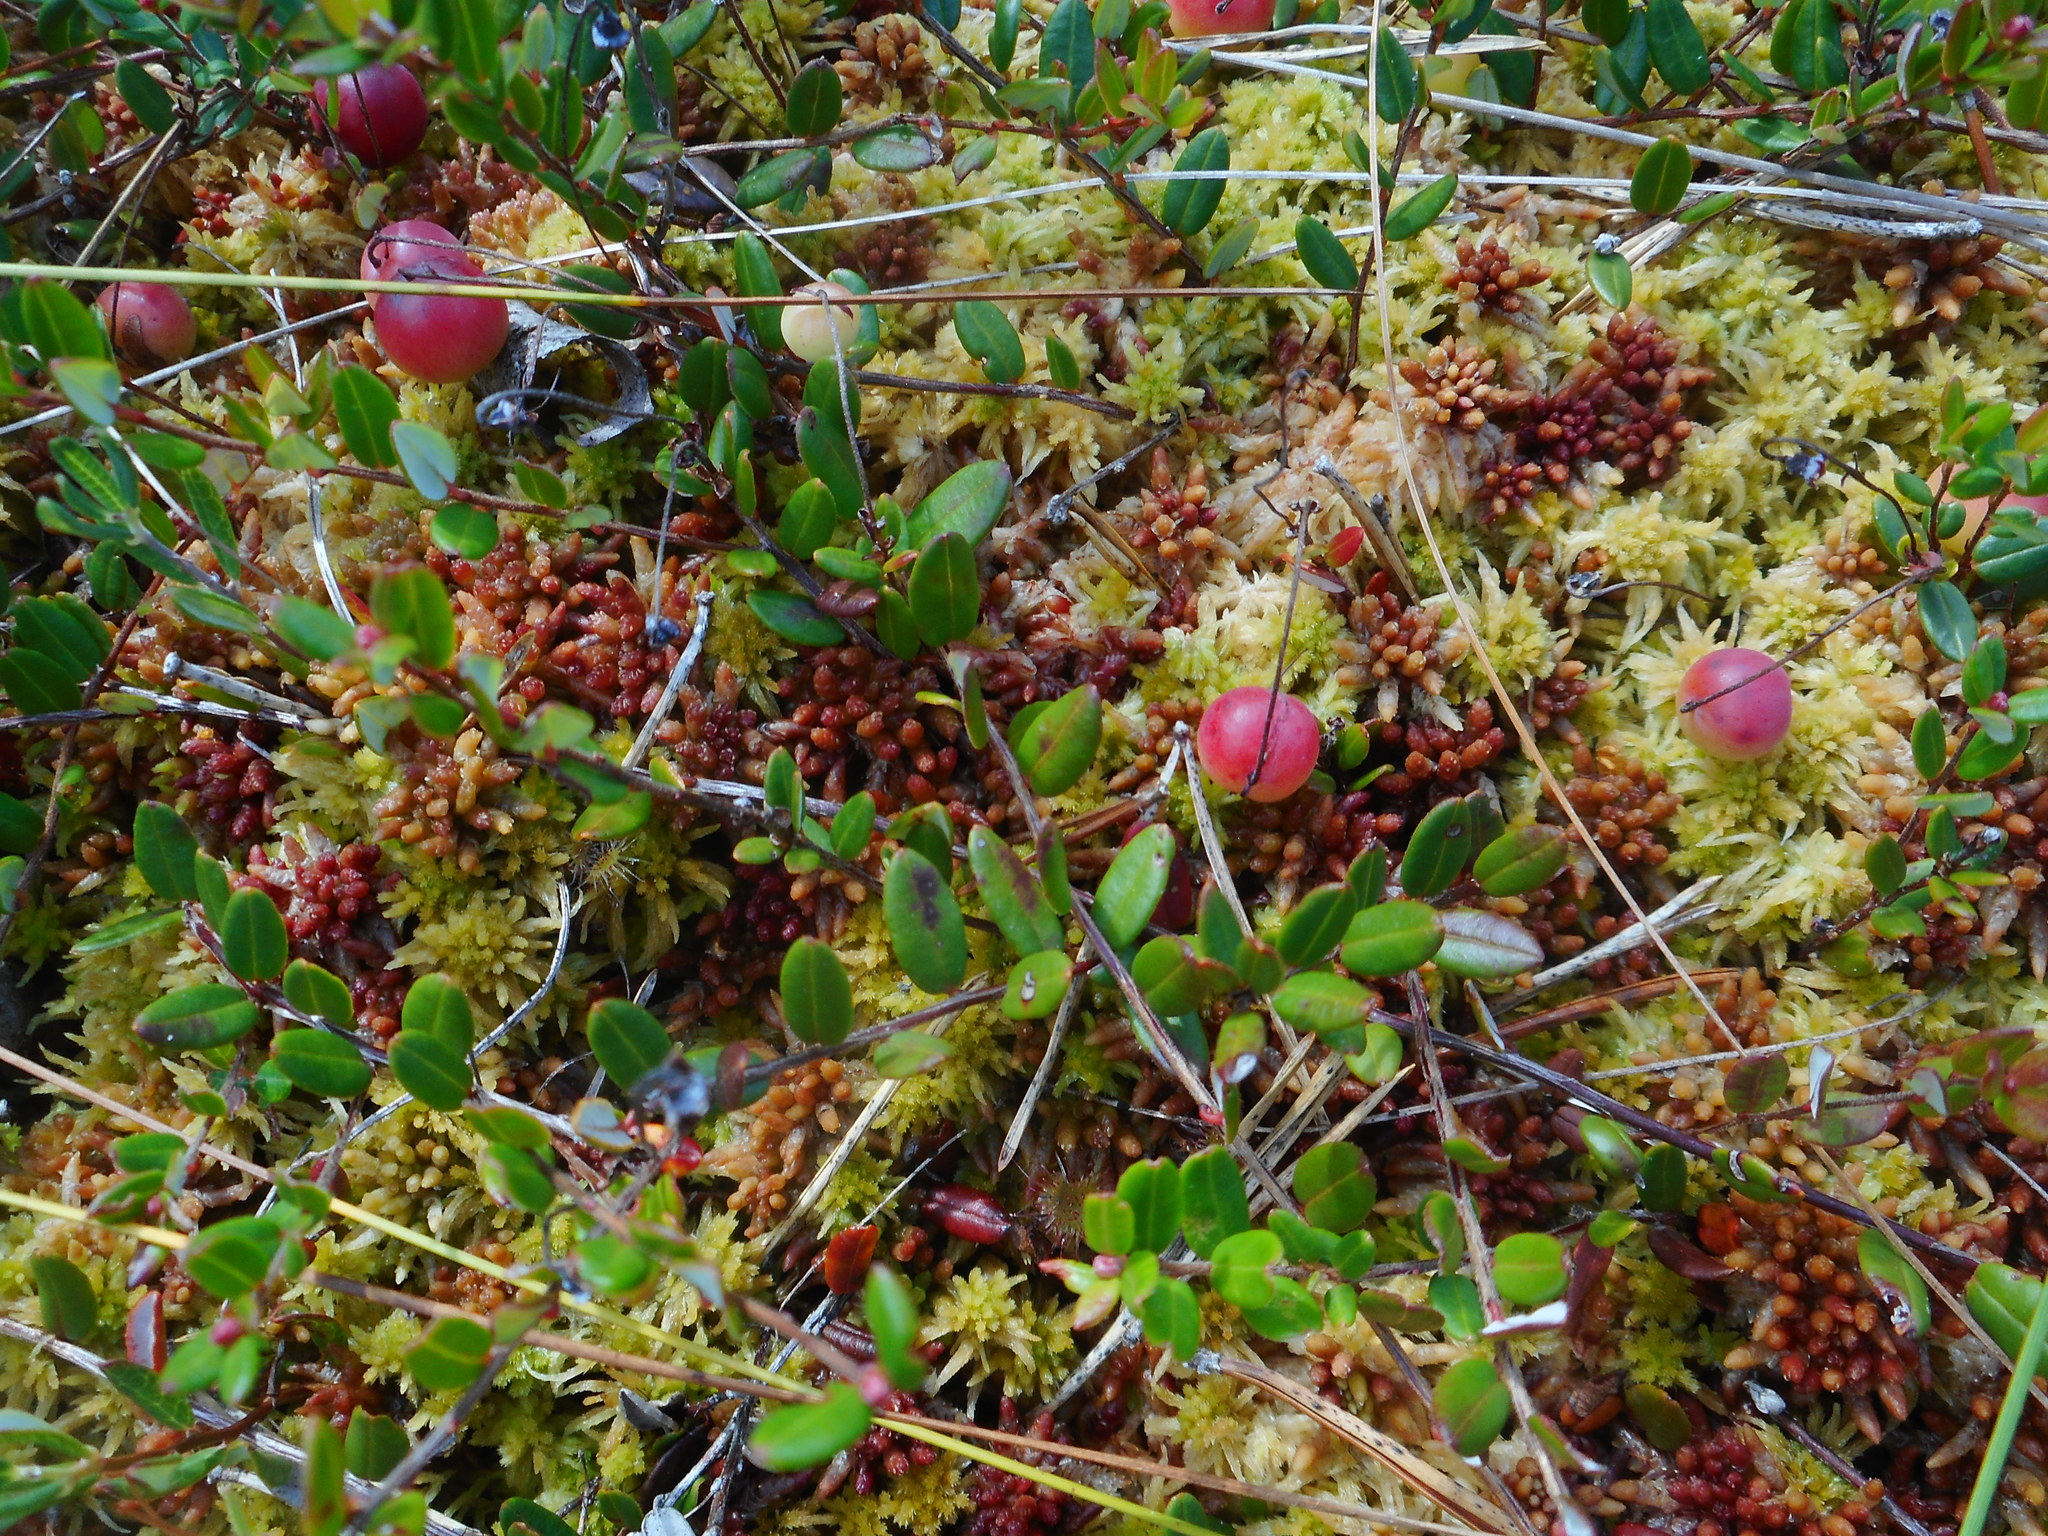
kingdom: Plantae
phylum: Tracheophyta
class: Magnoliopsida
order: Ericales
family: Ericaceae
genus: Vaccinium
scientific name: Vaccinium oxycoccos
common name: Cranberry
